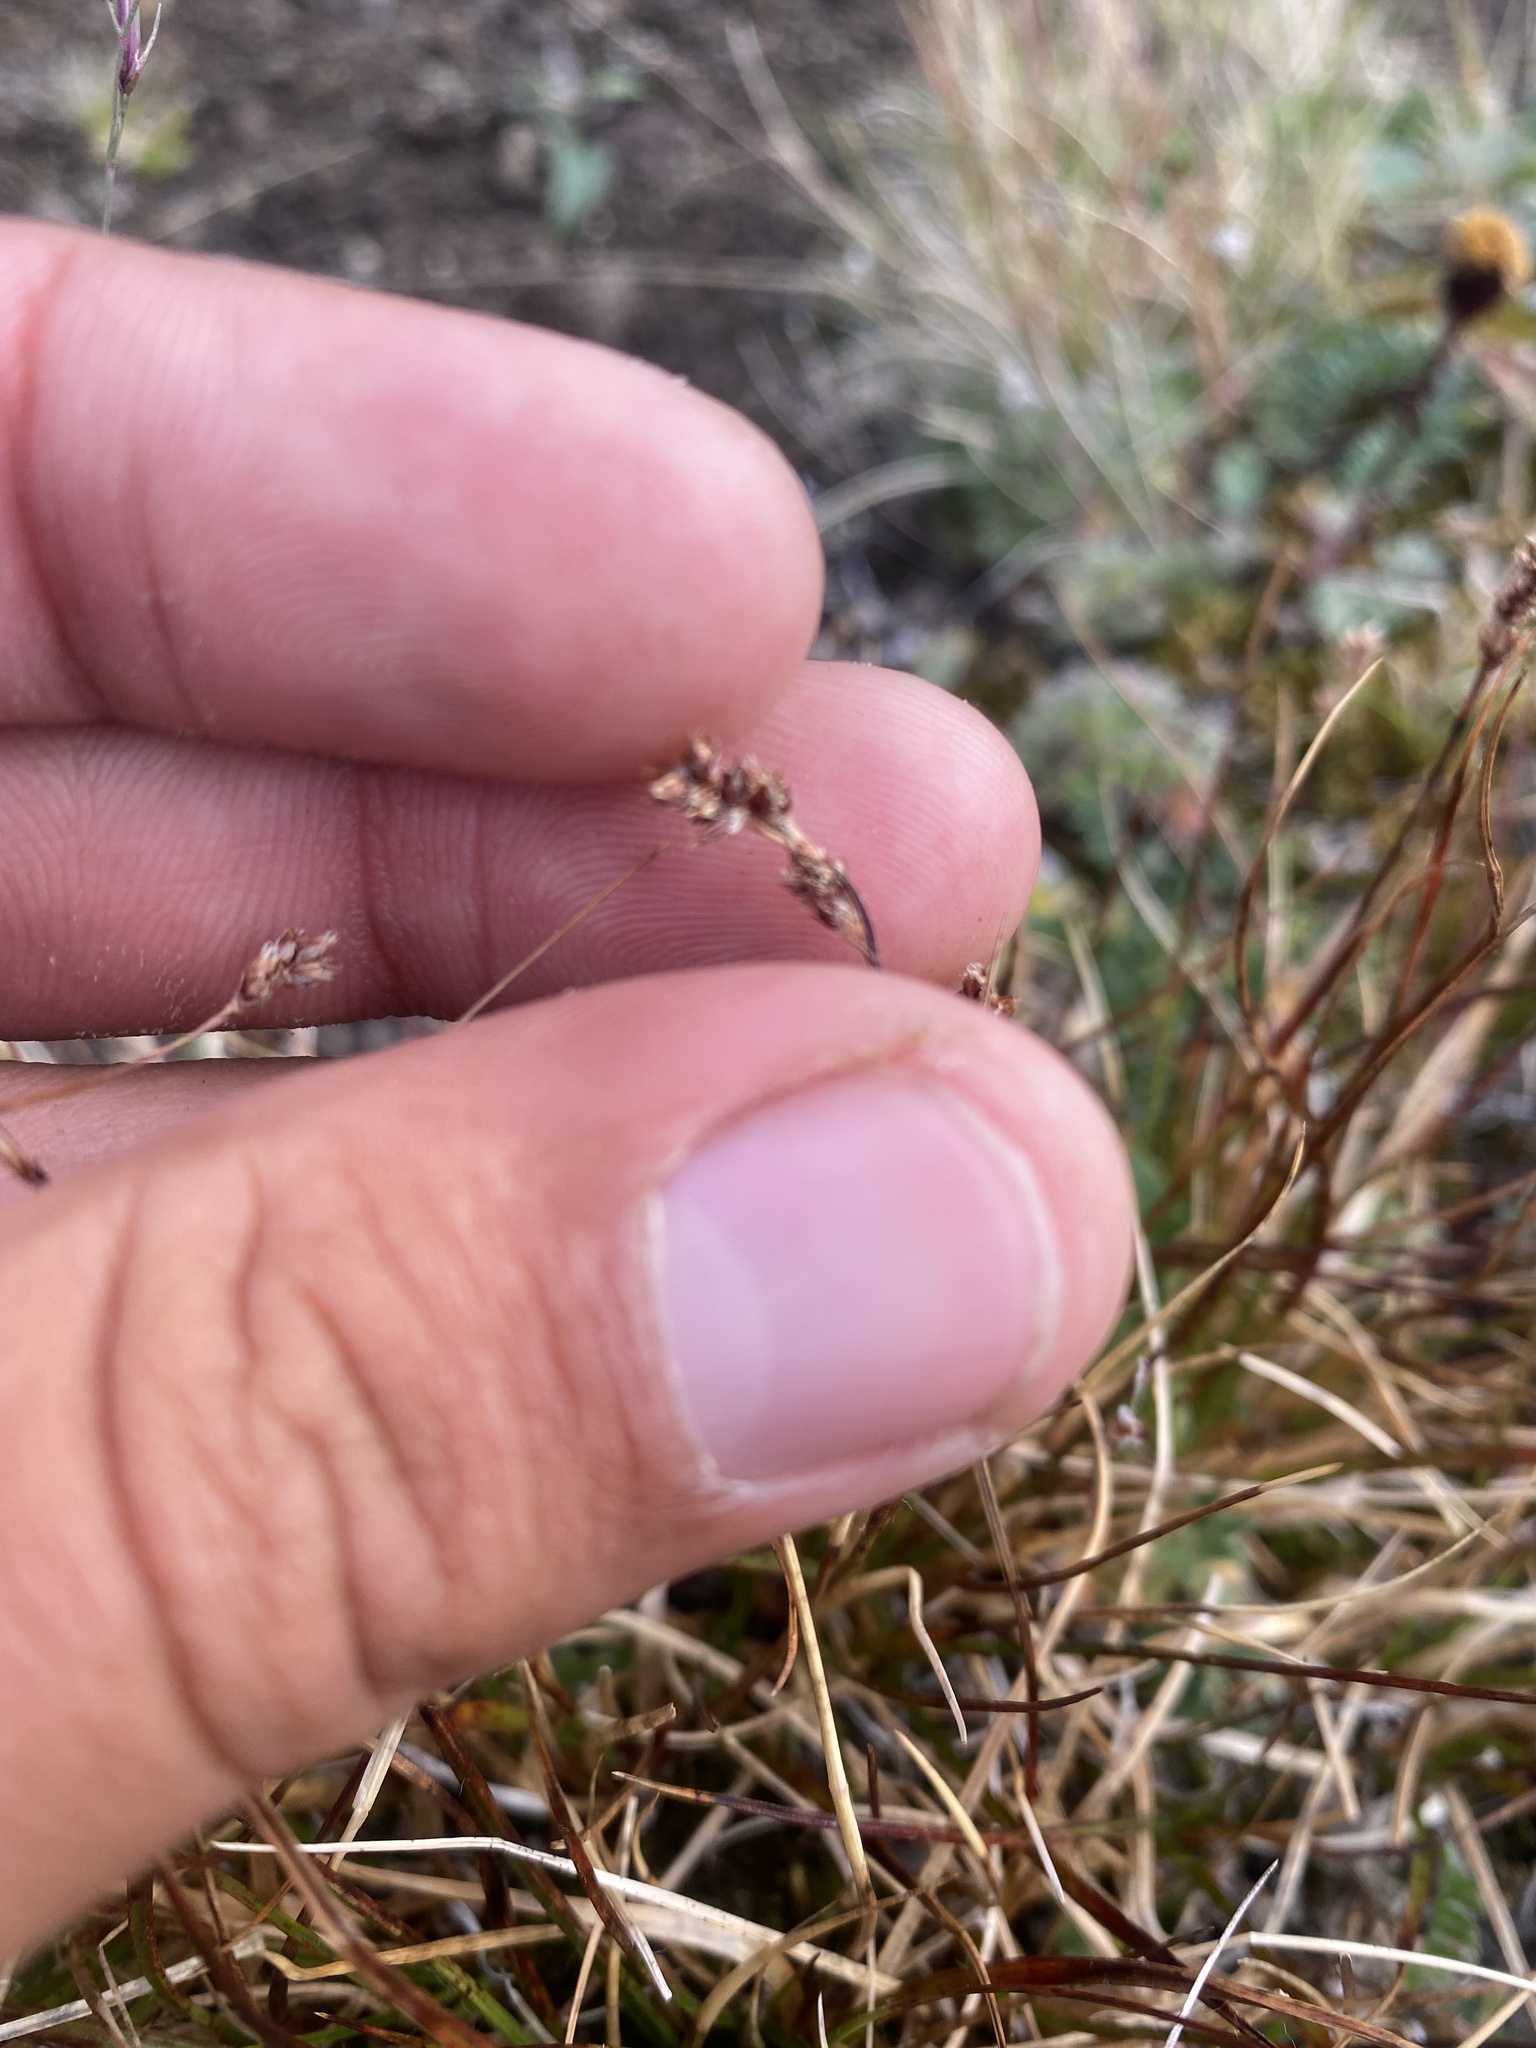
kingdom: Plantae
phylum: Tracheophyta
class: Liliopsida
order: Poales
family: Juncaceae
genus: Luzula
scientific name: Luzula confusa
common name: Northern wood rush
